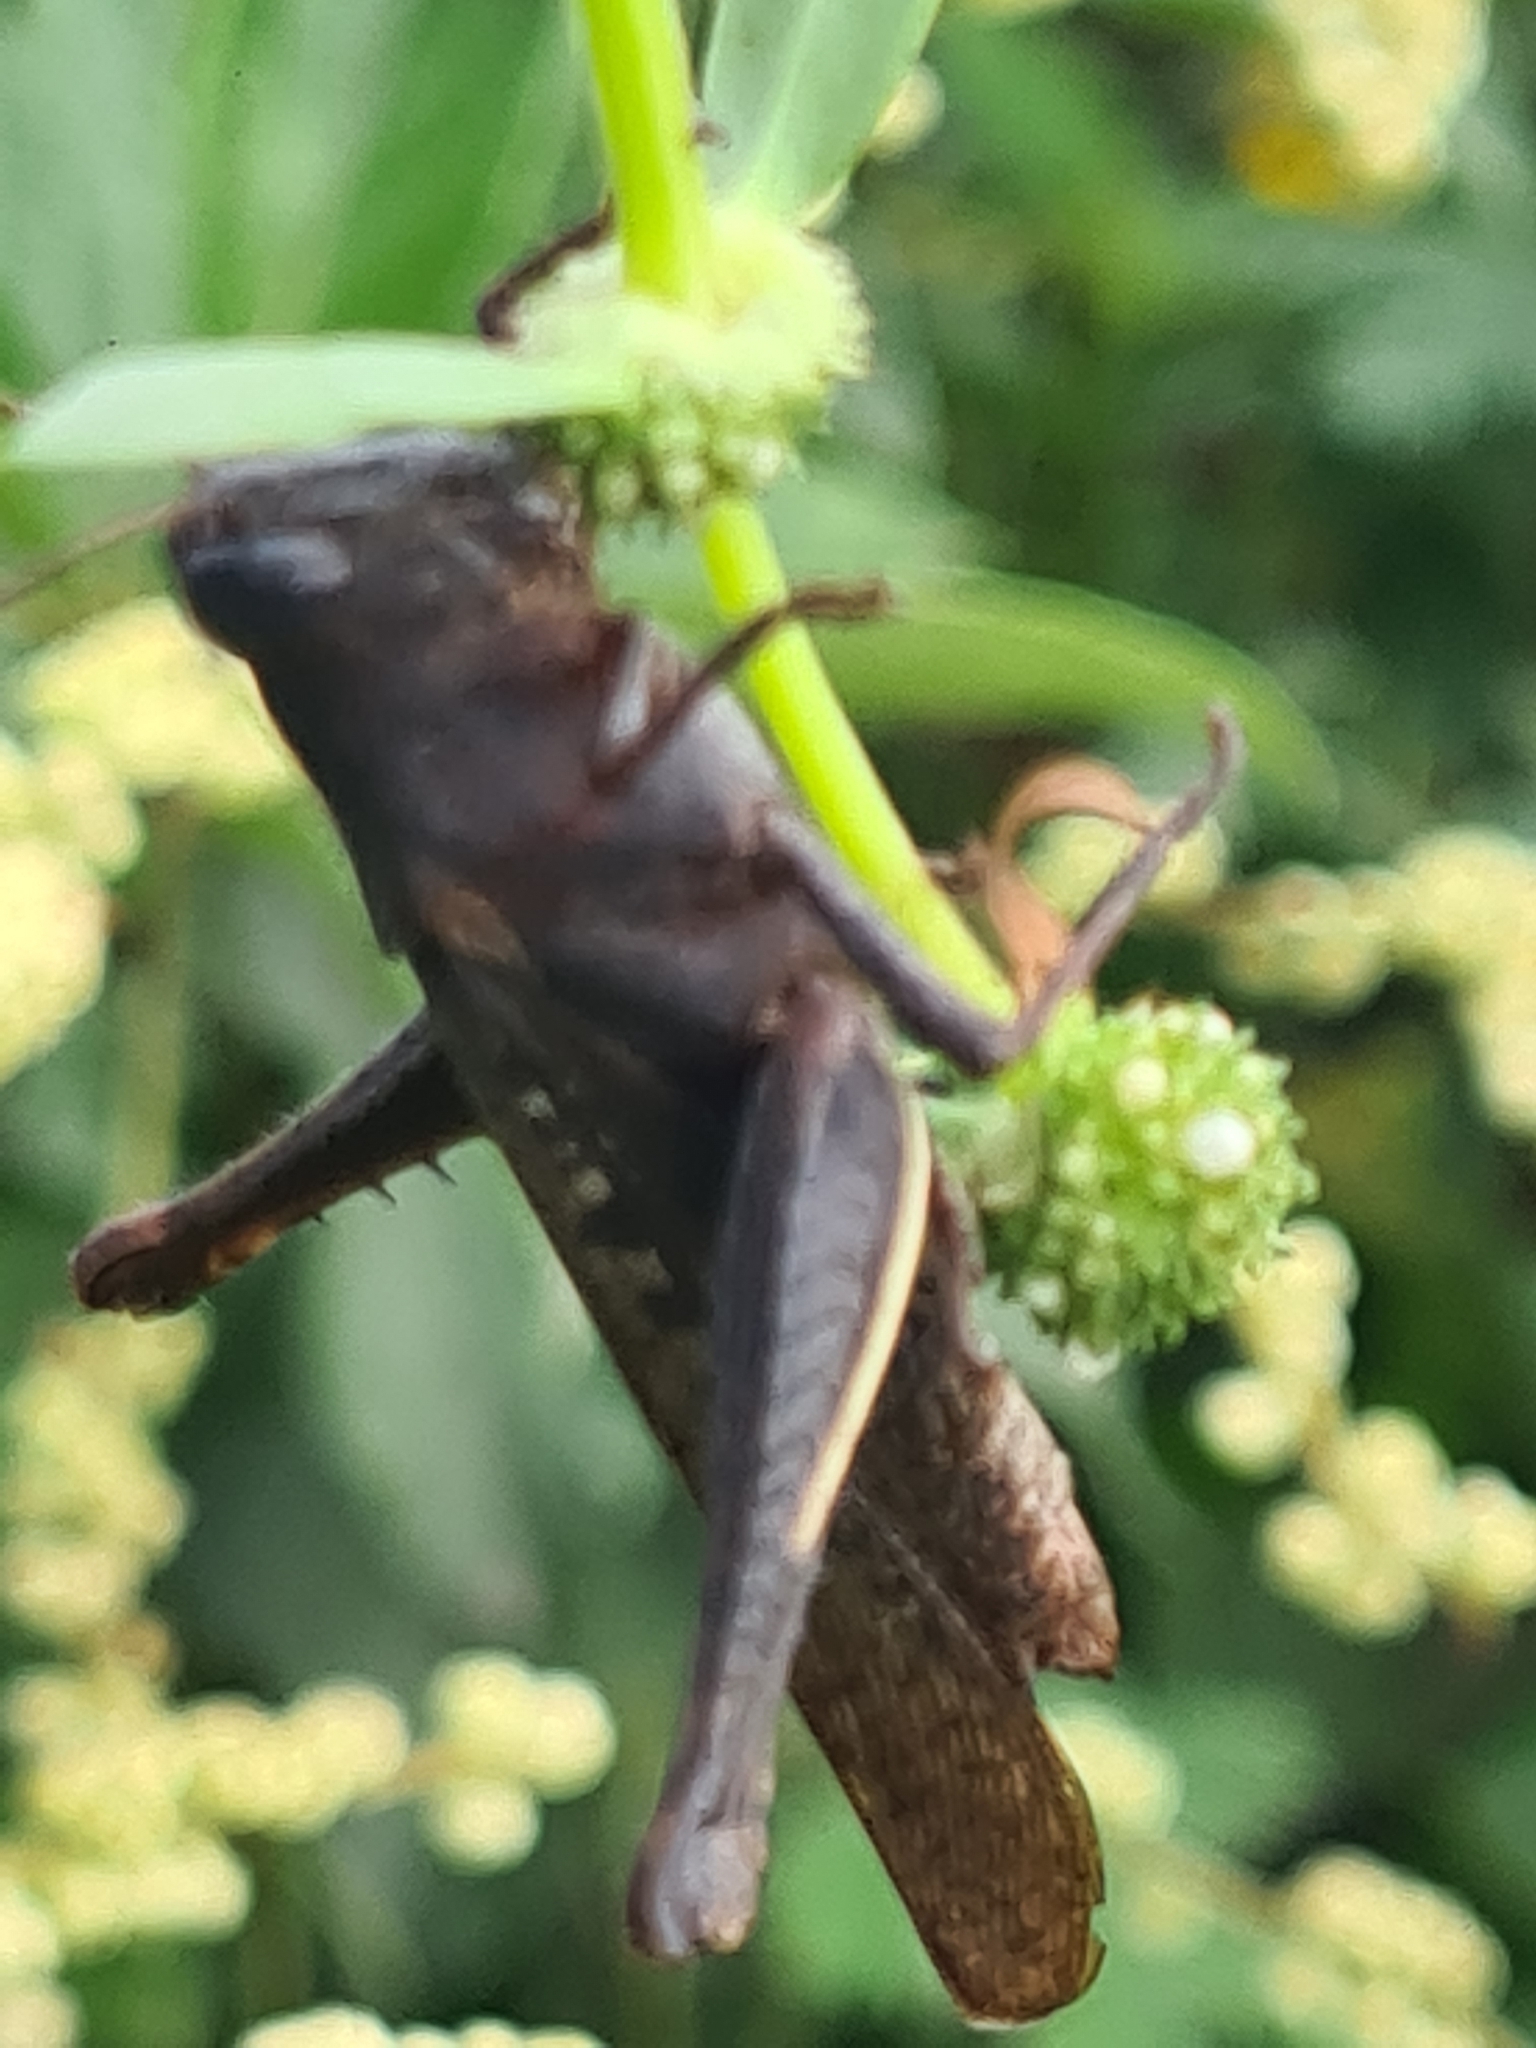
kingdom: Animalia
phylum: Arthropoda
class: Insecta
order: Orthoptera
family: Acrididae
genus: Abracris
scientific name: Abracris flavolineata
